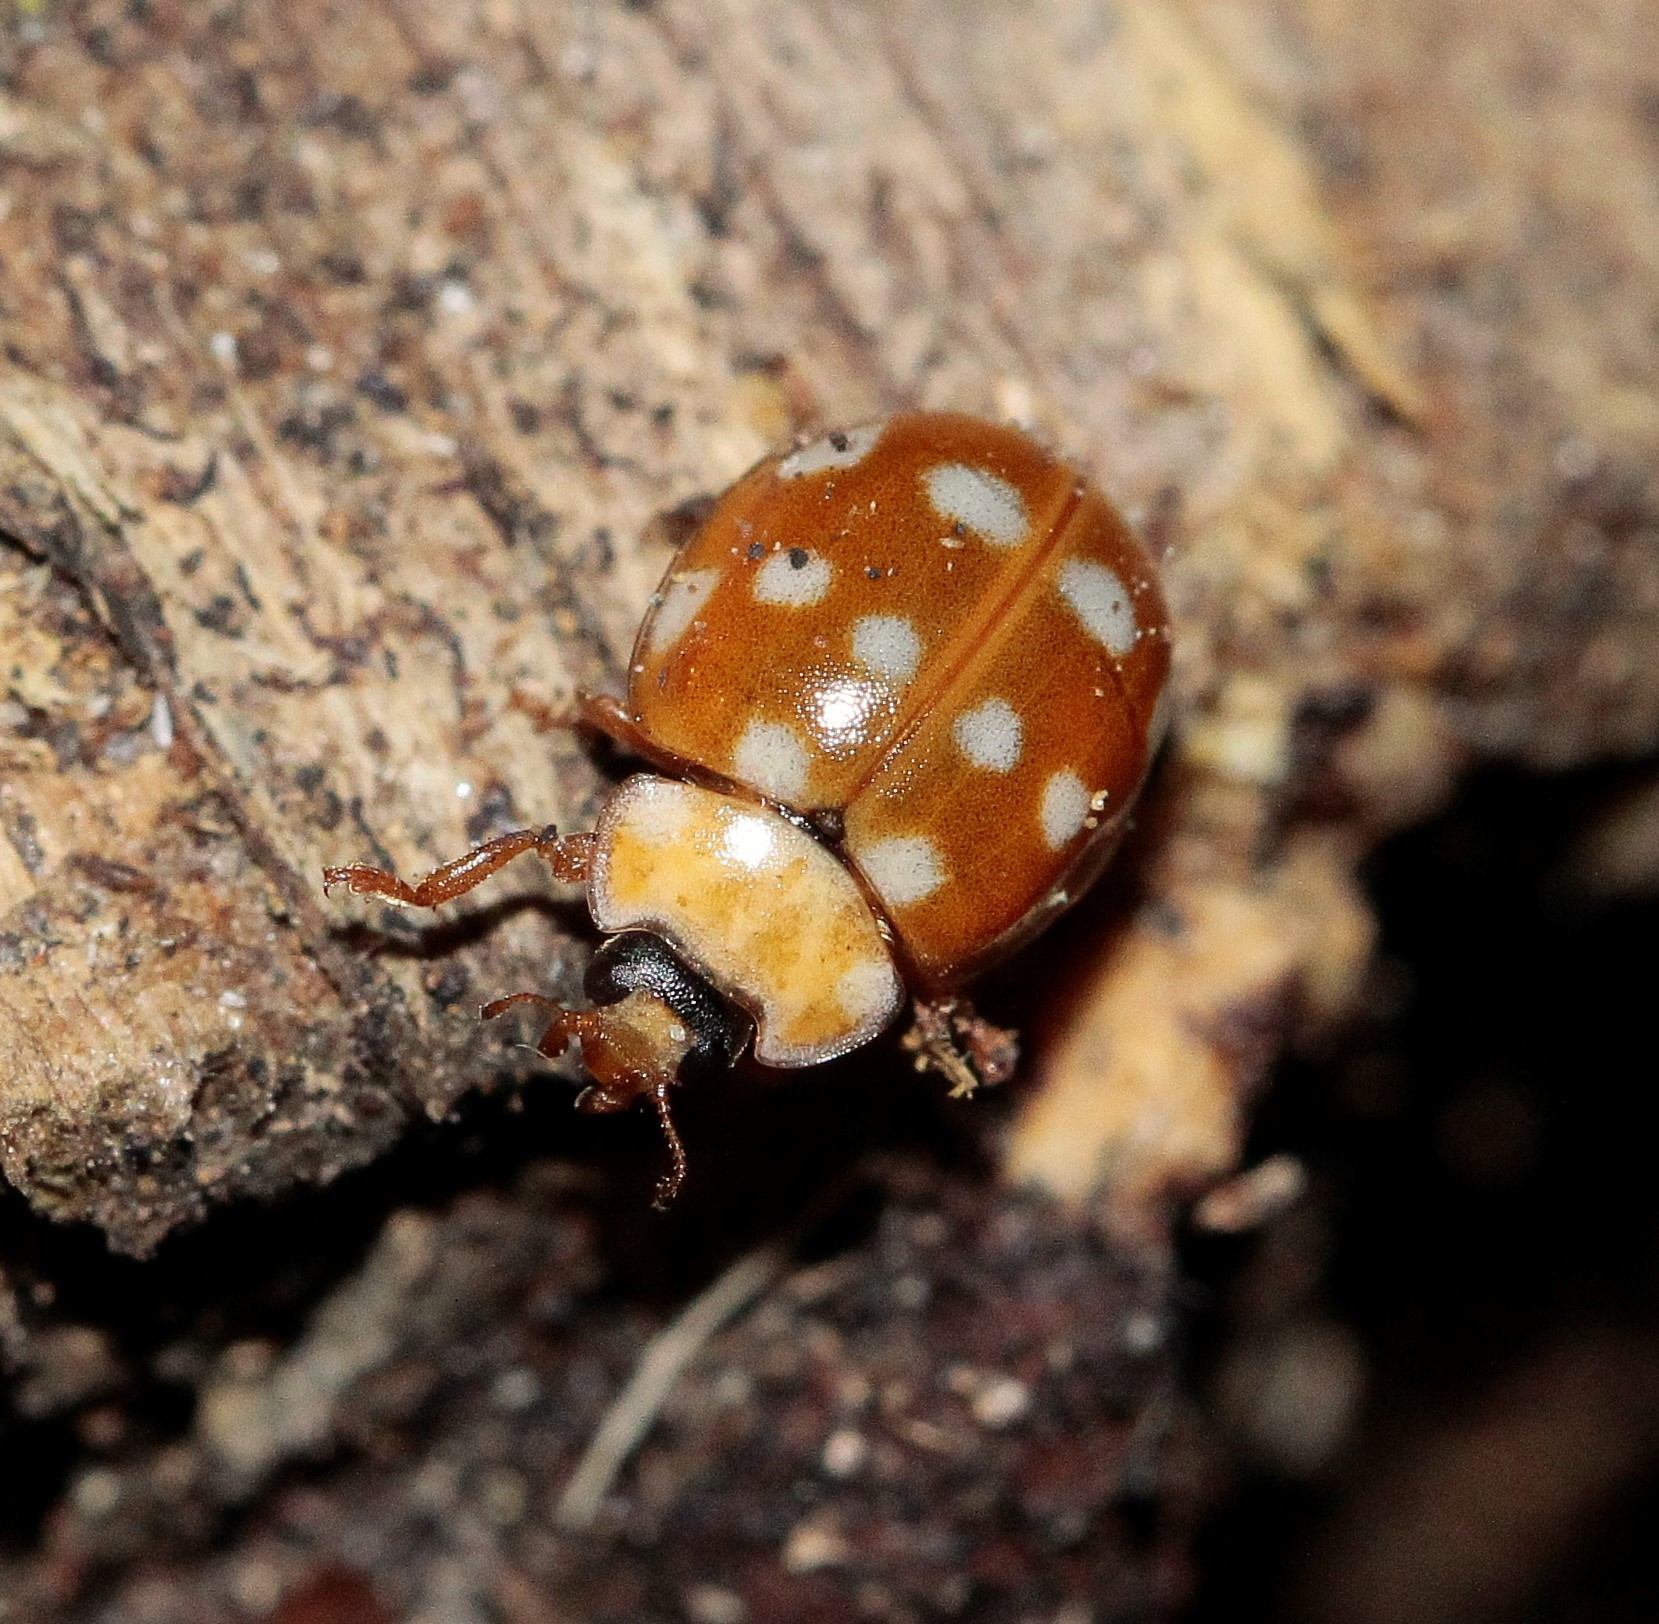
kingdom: Animalia
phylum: Arthropoda
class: Insecta
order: Coleoptera
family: Coccinellidae
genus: Calvia
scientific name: Calvia quatuordecimguttata
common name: Cream-spot ladybird
